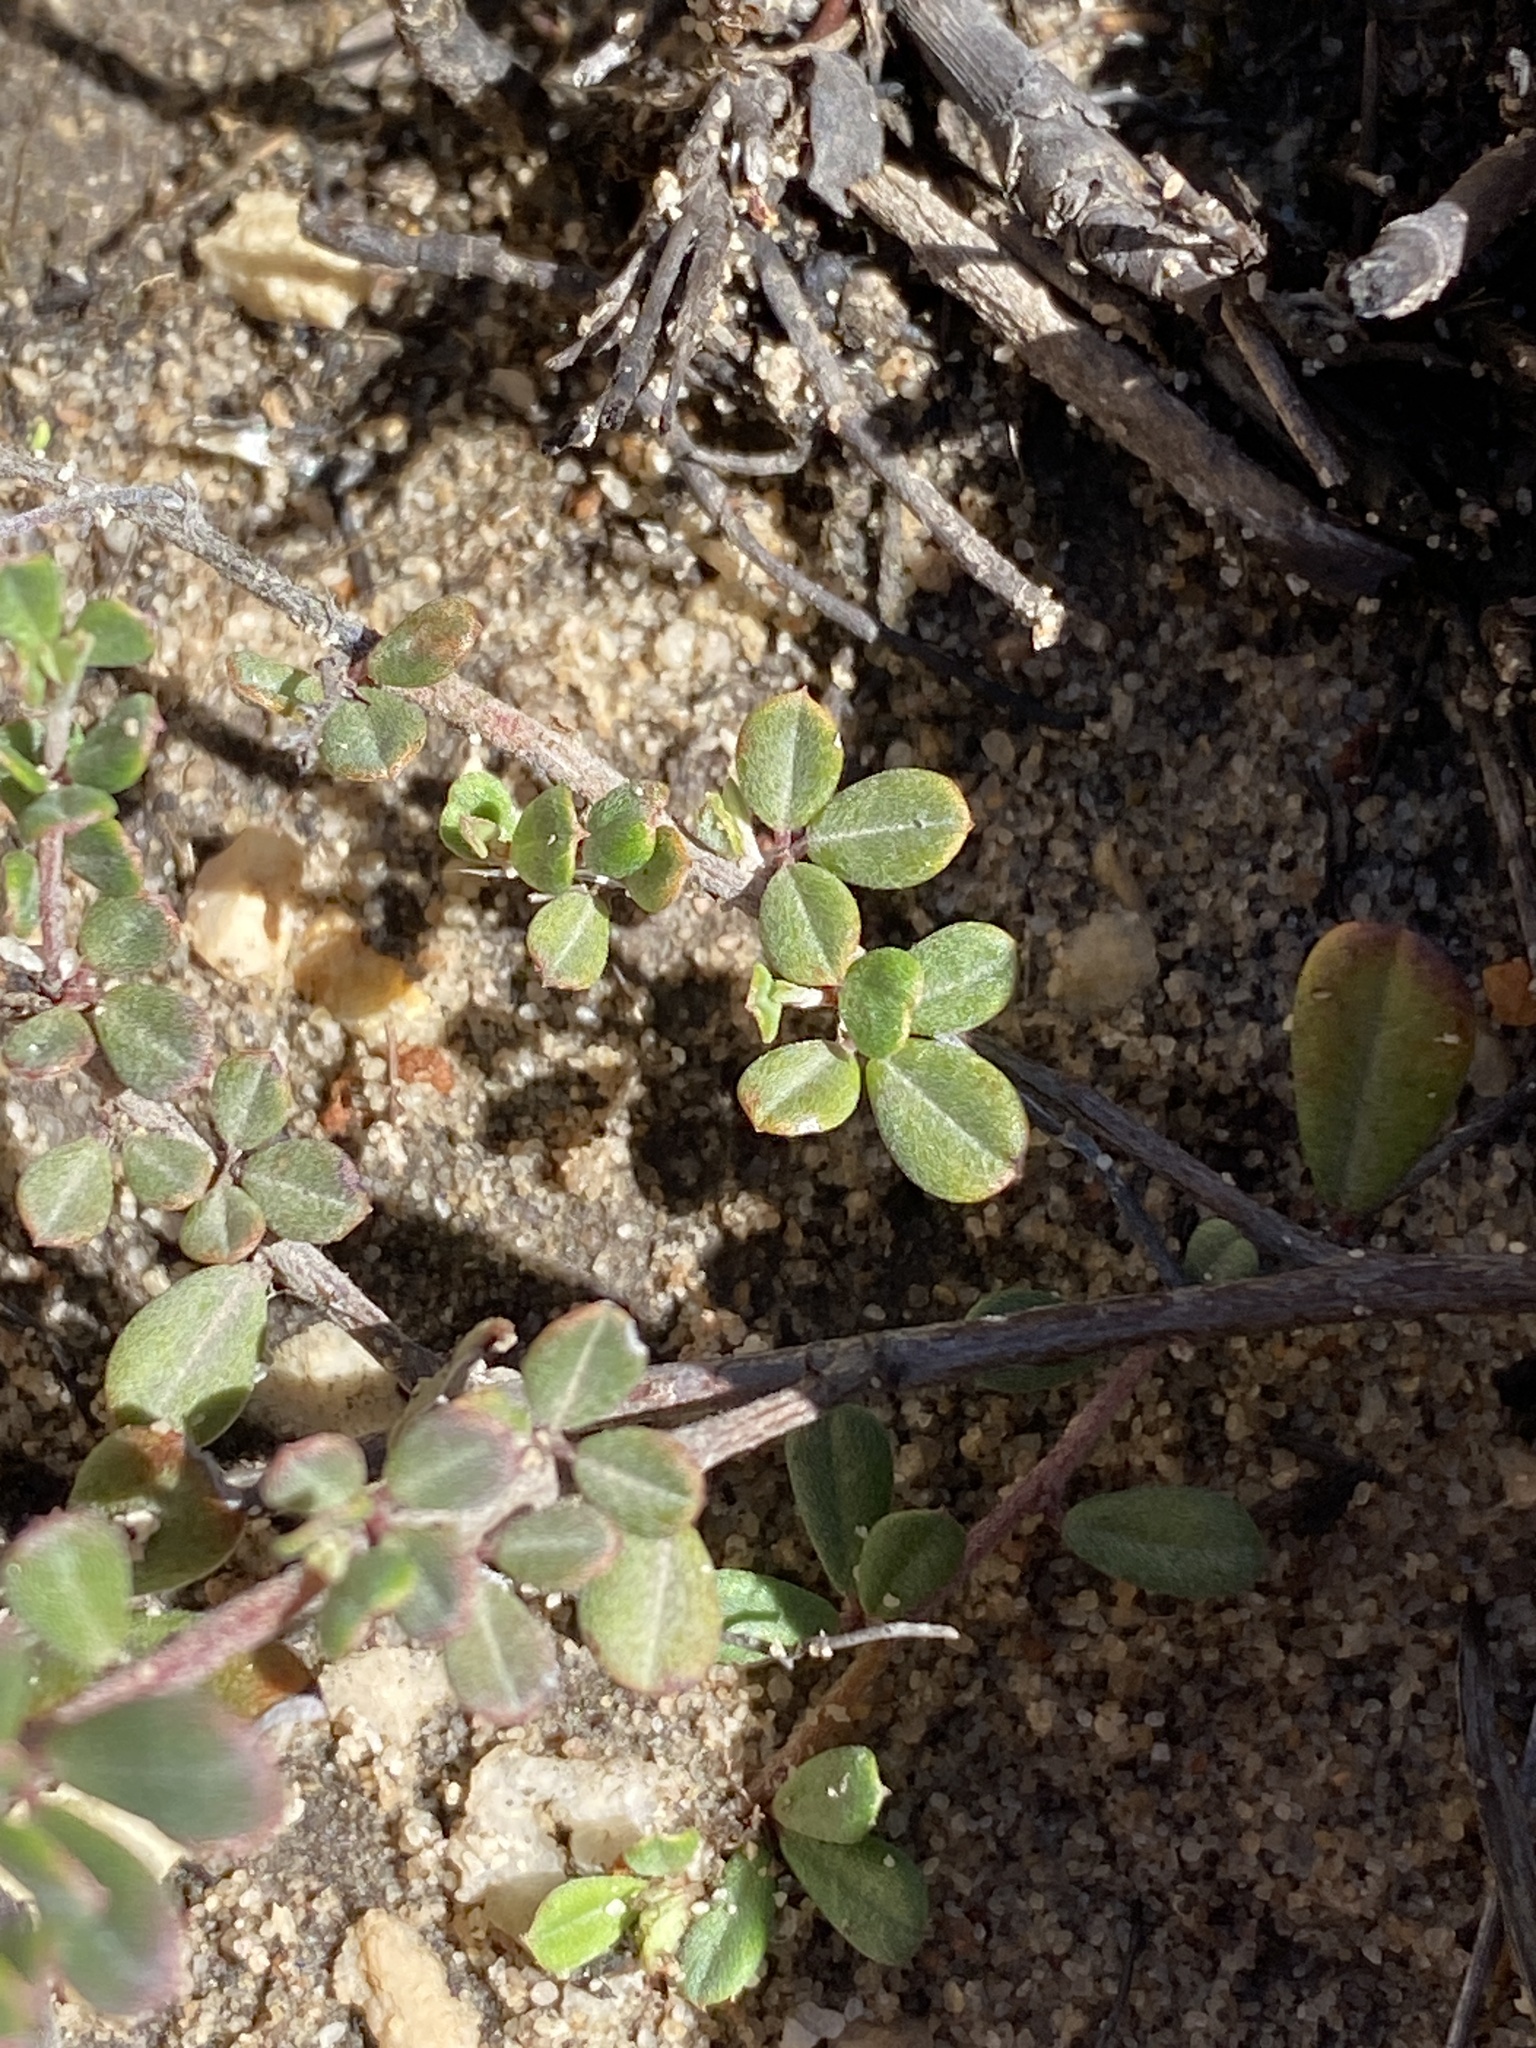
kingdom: Plantae
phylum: Tracheophyta
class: Magnoliopsida
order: Fabales
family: Fabaceae
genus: Indigofera
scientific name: Indigofera
